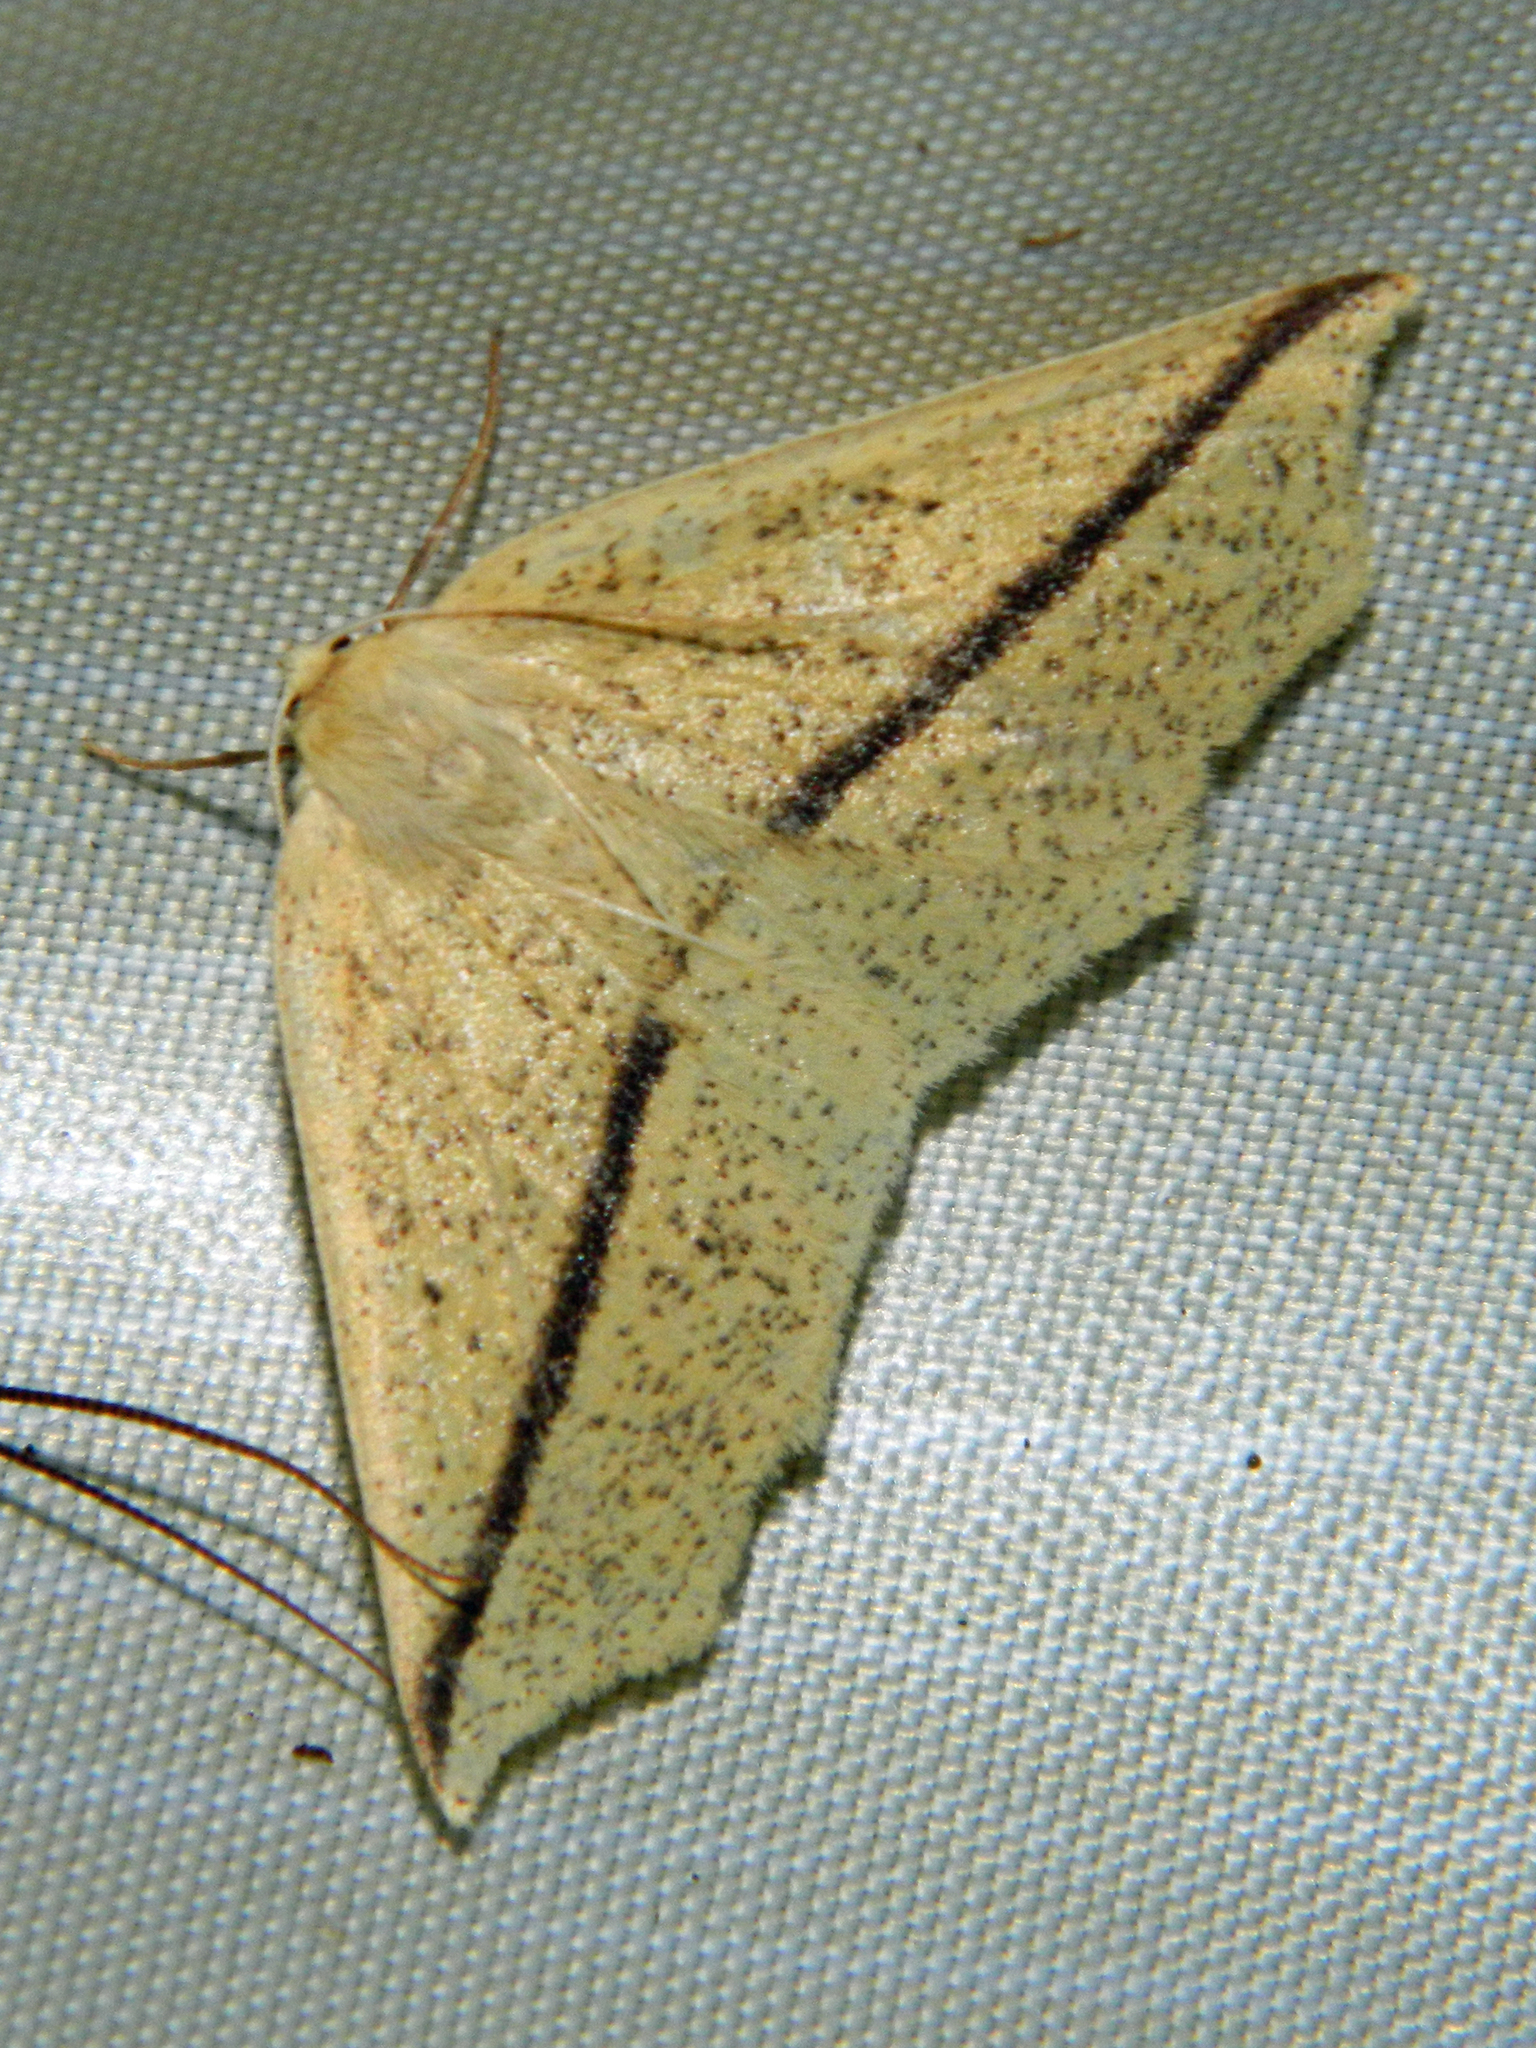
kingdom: Animalia
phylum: Arthropoda
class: Insecta
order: Lepidoptera
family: Geometridae
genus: Tetracis
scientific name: Tetracis crocallata
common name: Yellow slant-line
